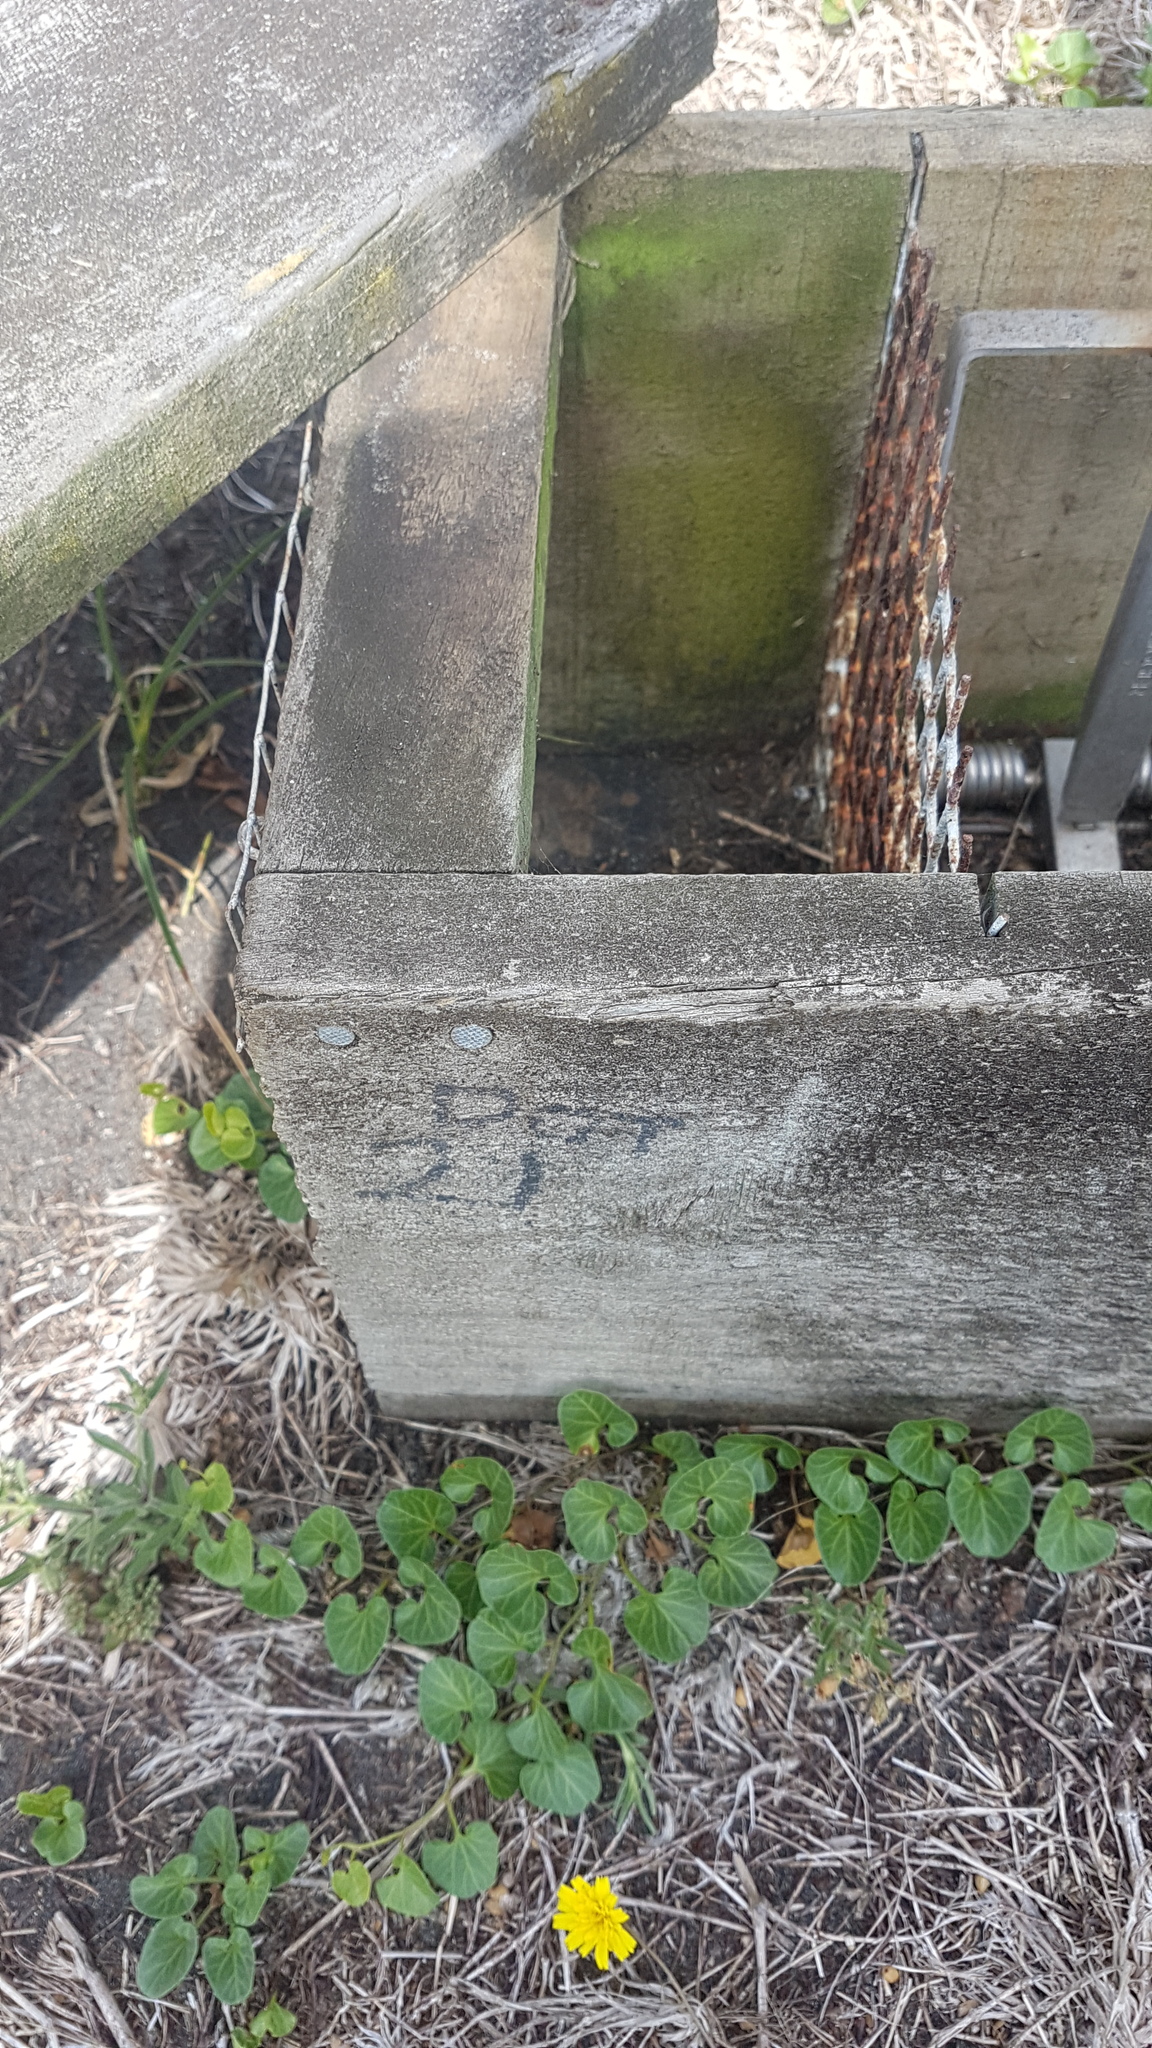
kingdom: Animalia
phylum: Chordata
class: Mammalia
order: Erinaceomorpha
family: Erinaceidae
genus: Erinaceus
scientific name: Erinaceus europaeus
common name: West european hedgehog
